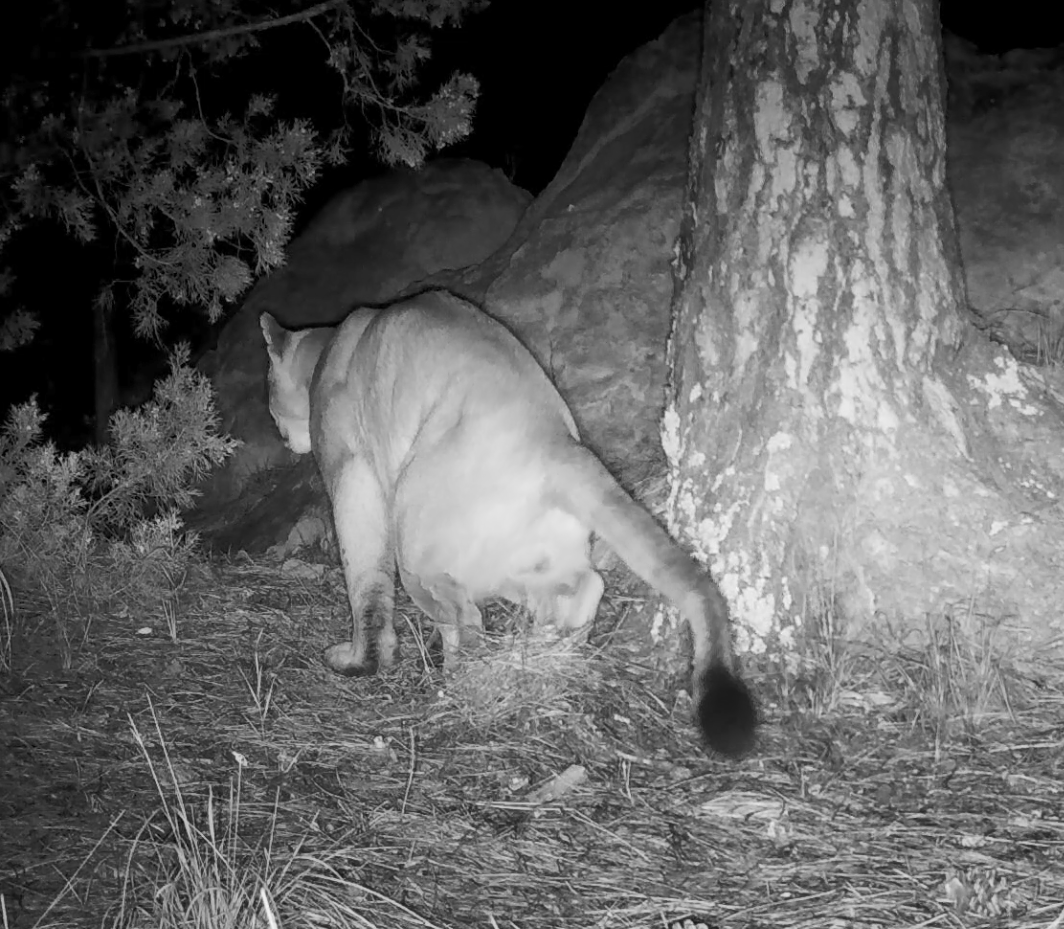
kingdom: Animalia
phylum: Chordata
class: Mammalia
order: Carnivora
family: Felidae
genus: Puma
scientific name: Puma concolor
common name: Puma
